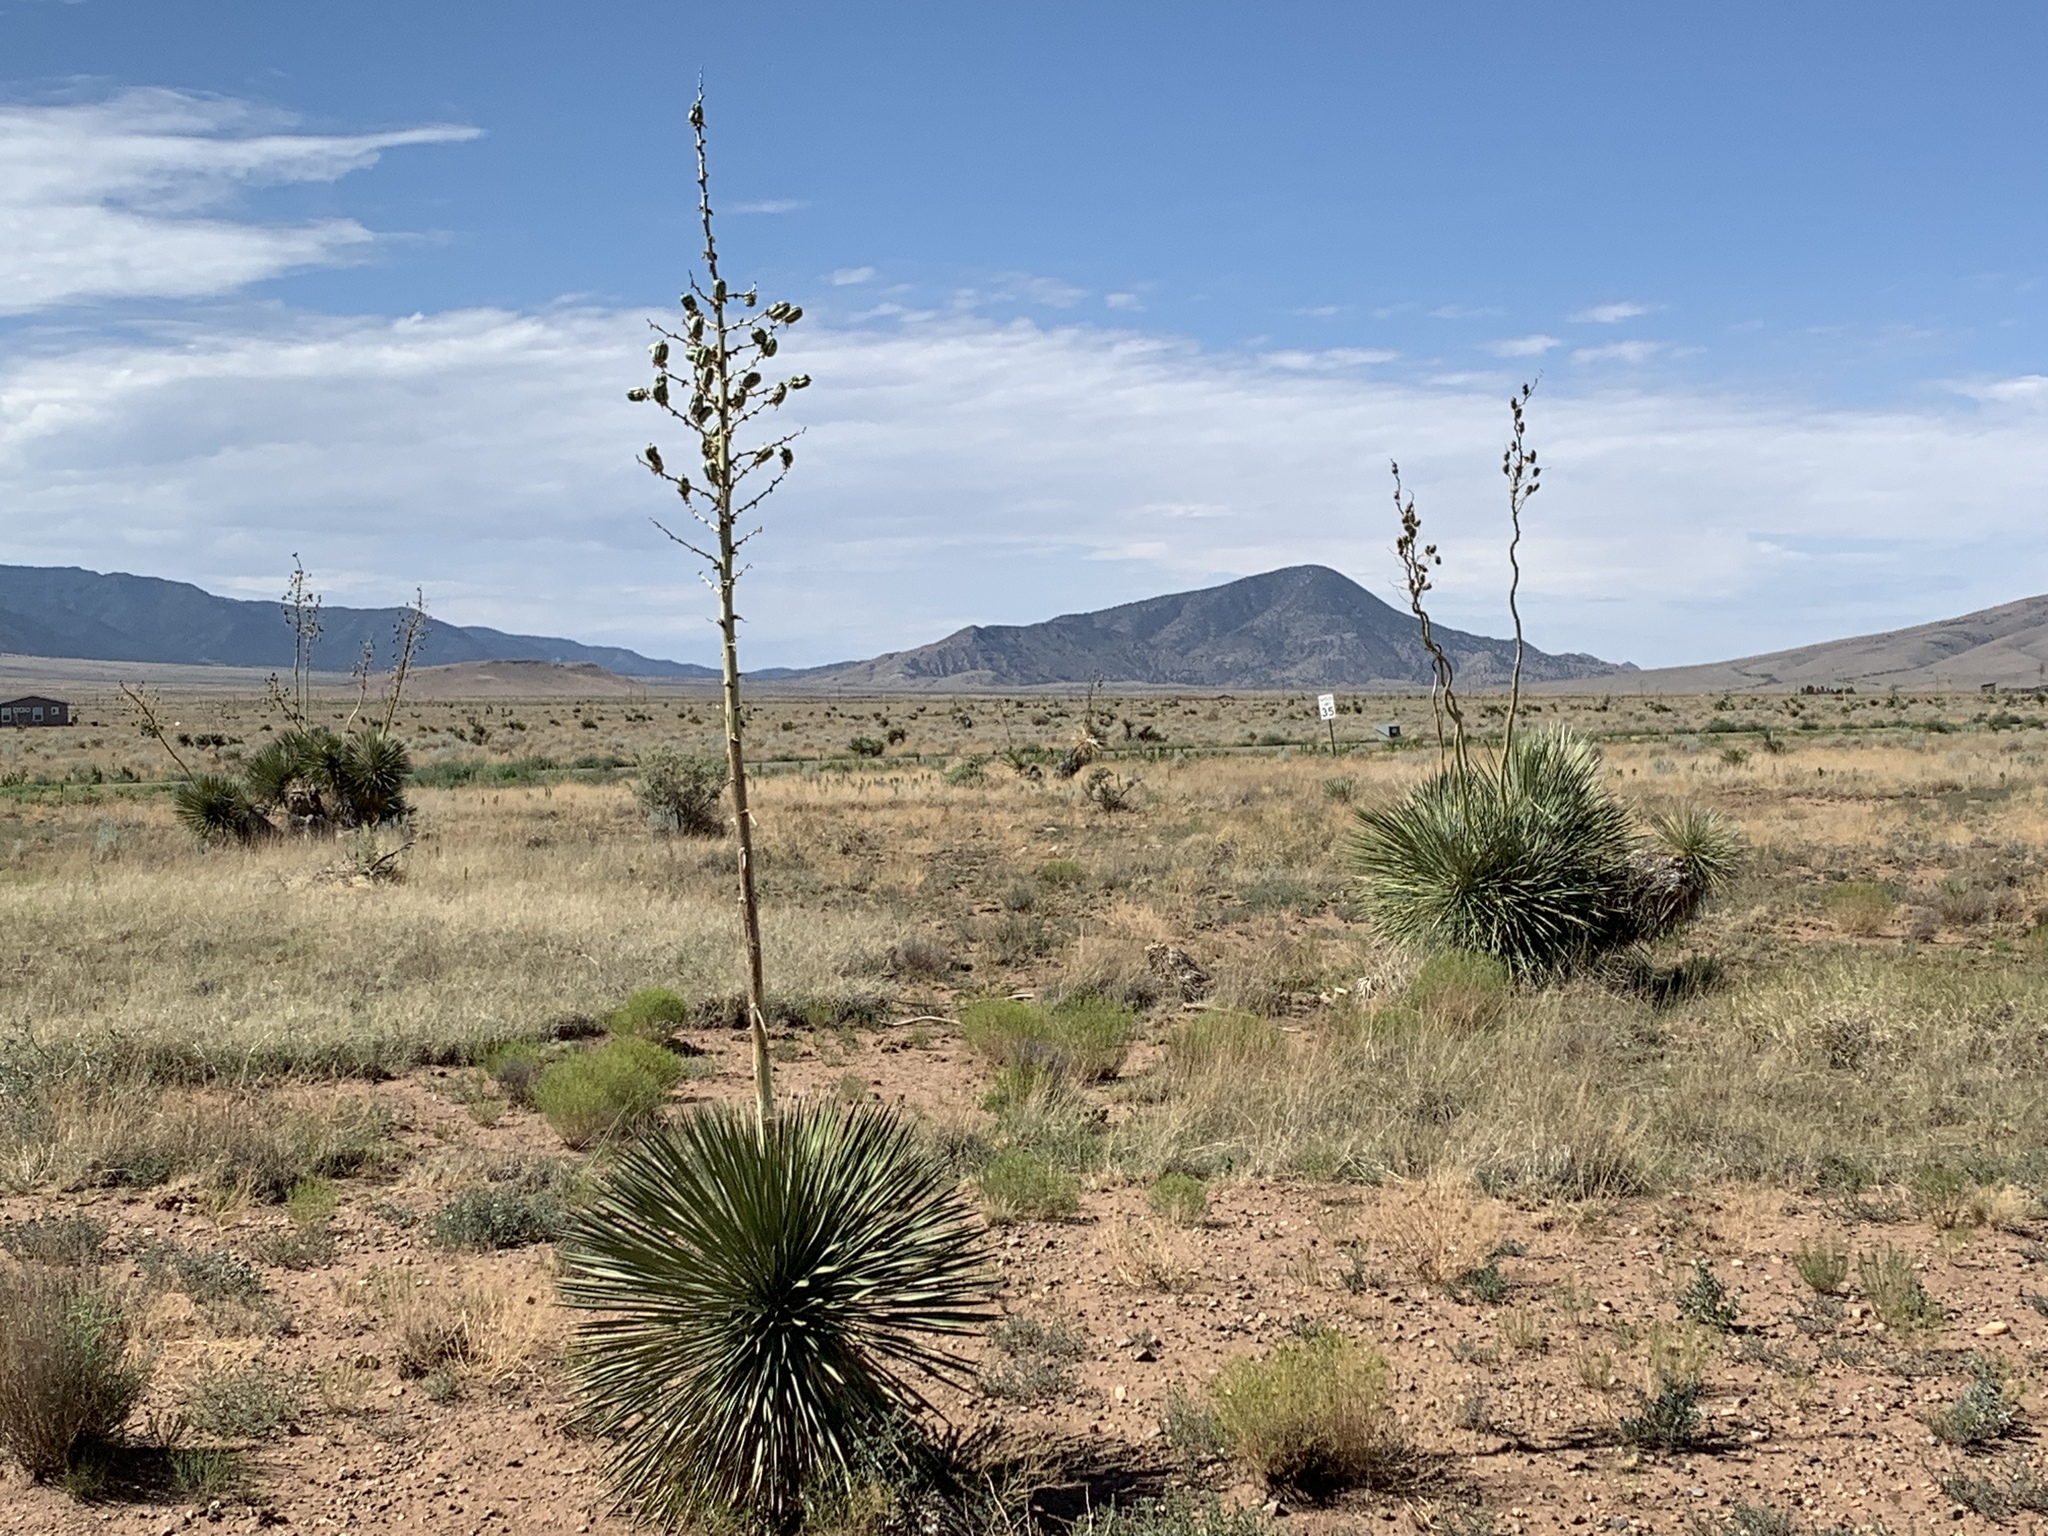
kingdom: Plantae
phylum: Tracheophyta
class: Liliopsida
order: Asparagales
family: Asparagaceae
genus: Yucca
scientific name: Yucca elata
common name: Palmella
